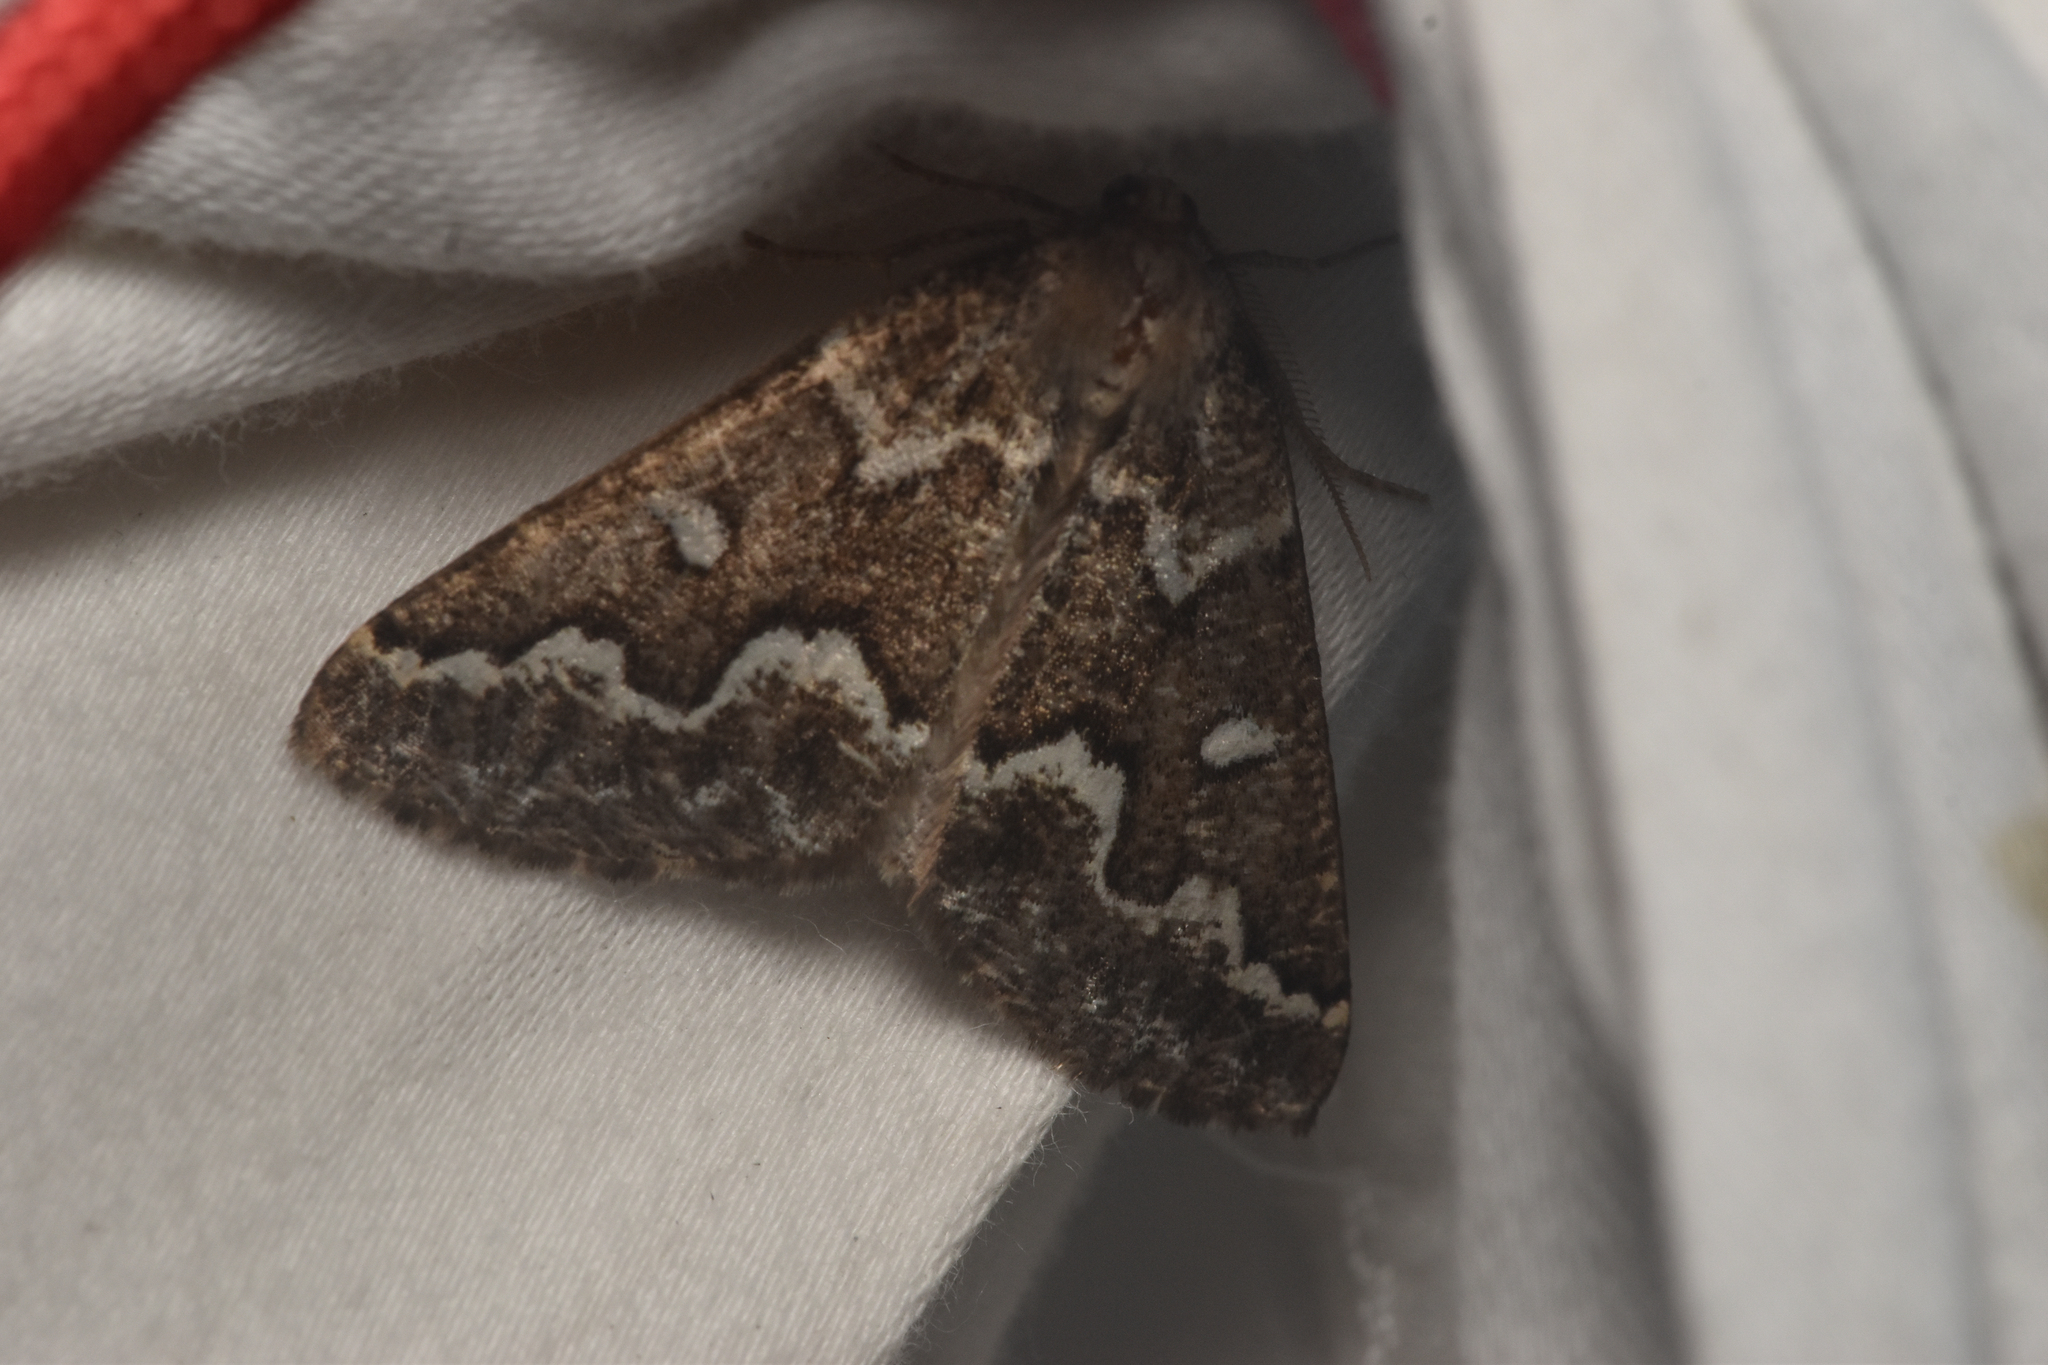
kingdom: Animalia
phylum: Arthropoda
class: Insecta
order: Lepidoptera
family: Geometridae
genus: Caripeta
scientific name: Caripeta divisata
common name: Gray spruce looper
